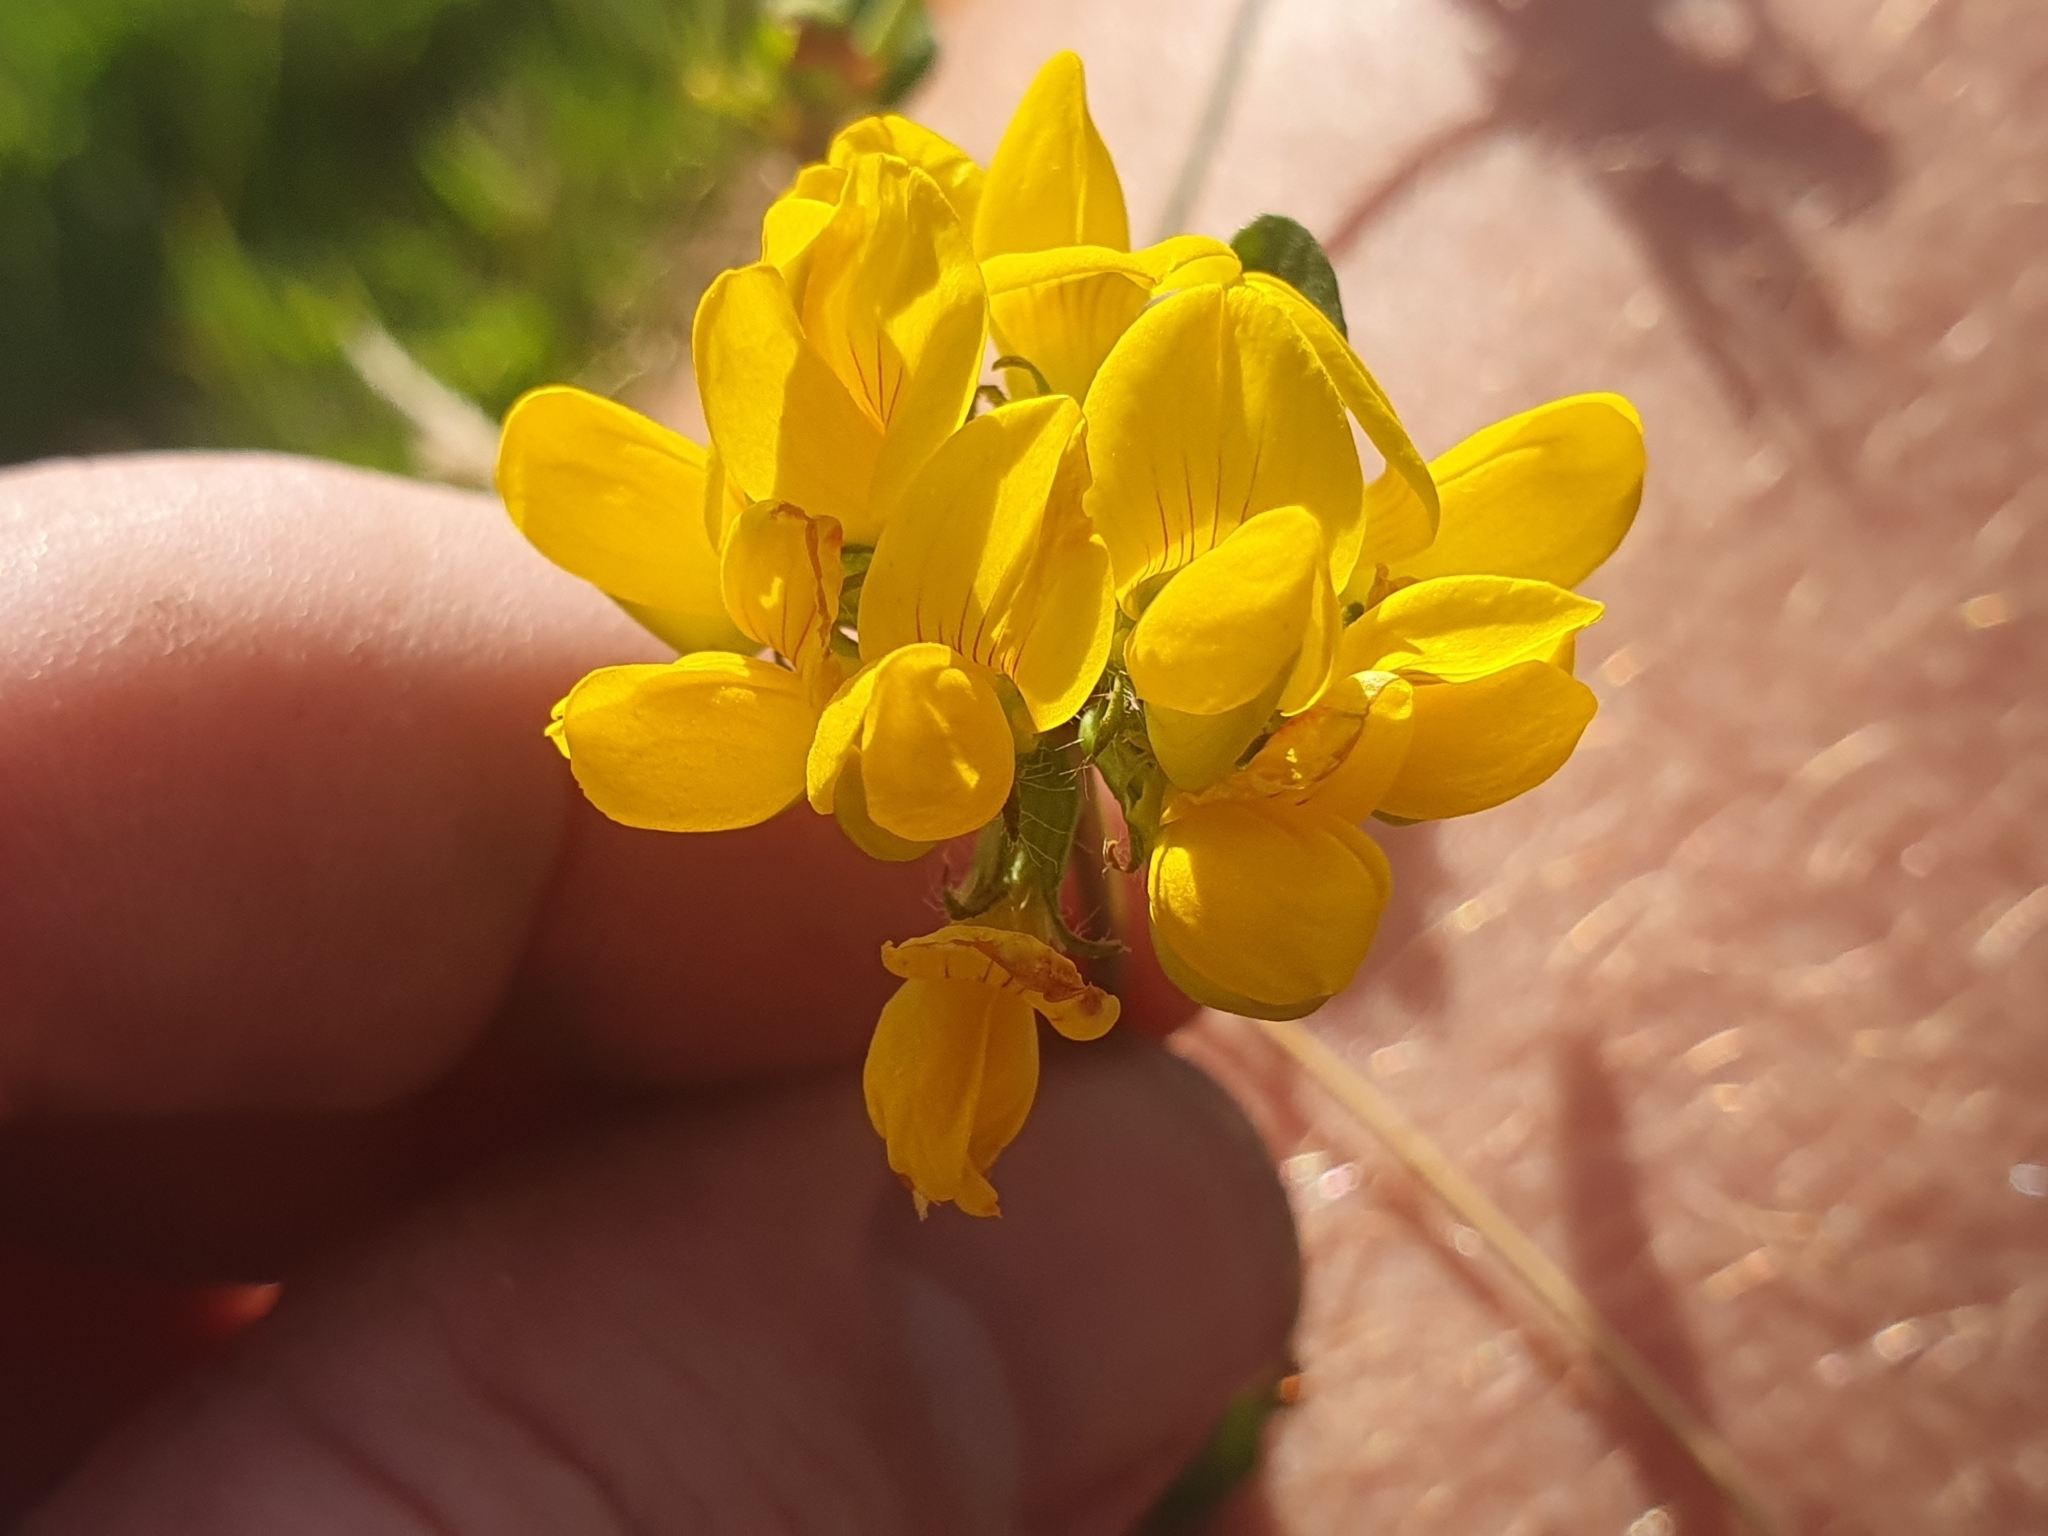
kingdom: Plantae
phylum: Tracheophyta
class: Magnoliopsida
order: Fabales
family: Fabaceae
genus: Lotus
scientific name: Lotus pedunculatus
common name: Greater birdsfoot-trefoil
